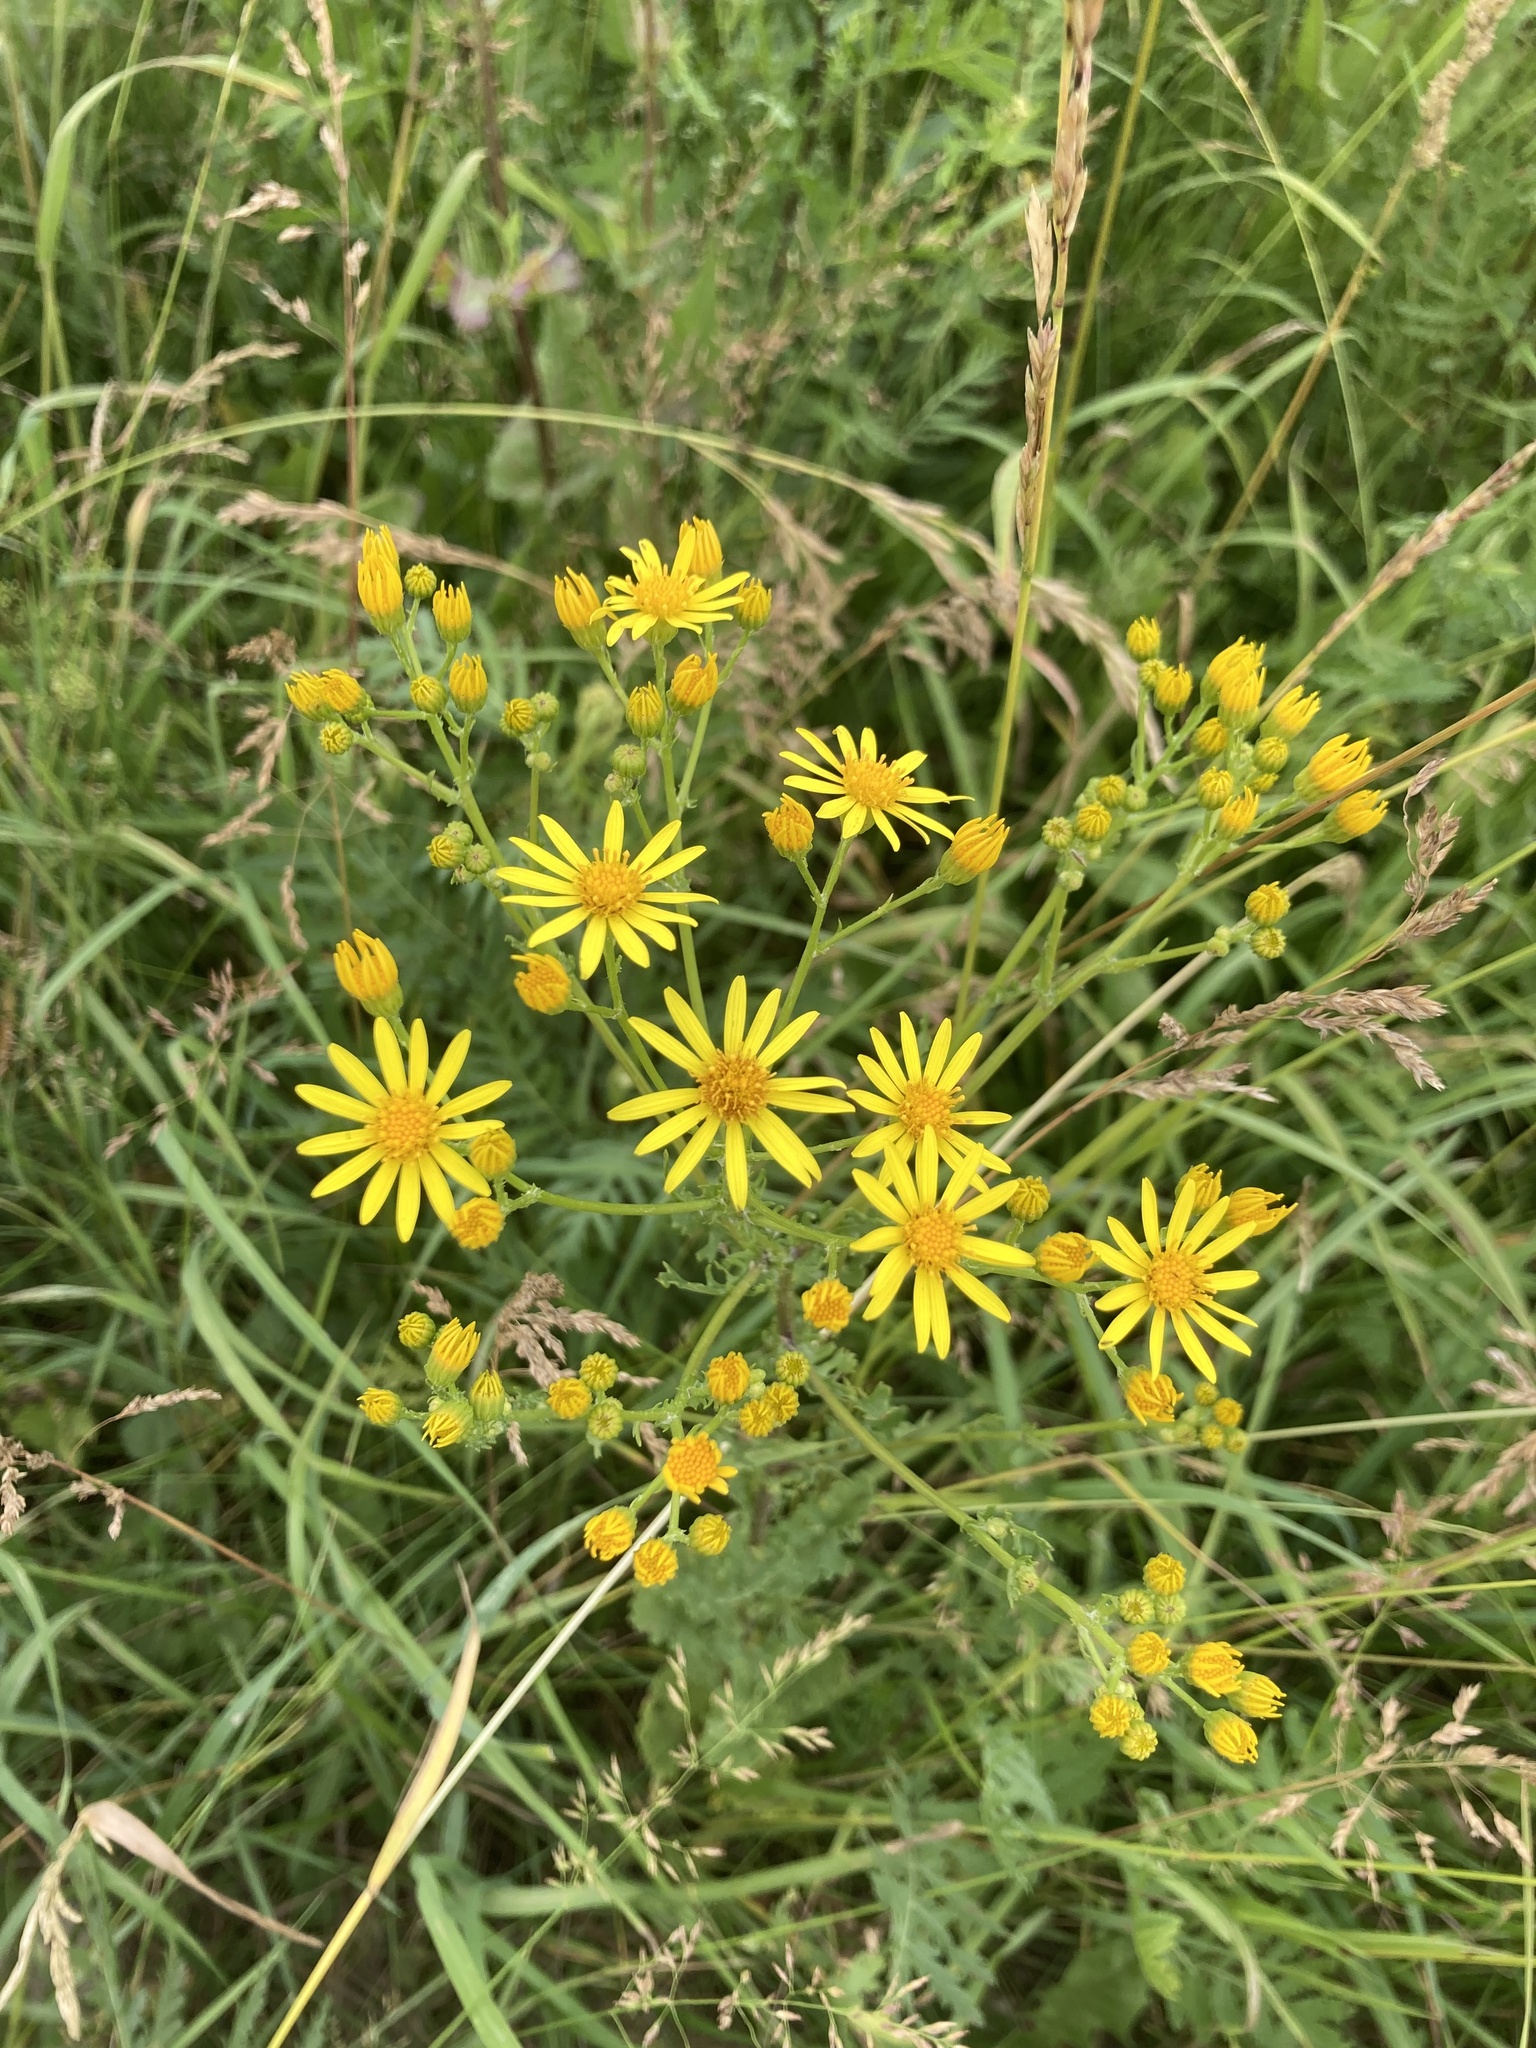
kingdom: Plantae
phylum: Tracheophyta
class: Magnoliopsida
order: Asterales
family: Asteraceae
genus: Jacobaea
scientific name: Jacobaea vulgaris
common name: Stinking willie
